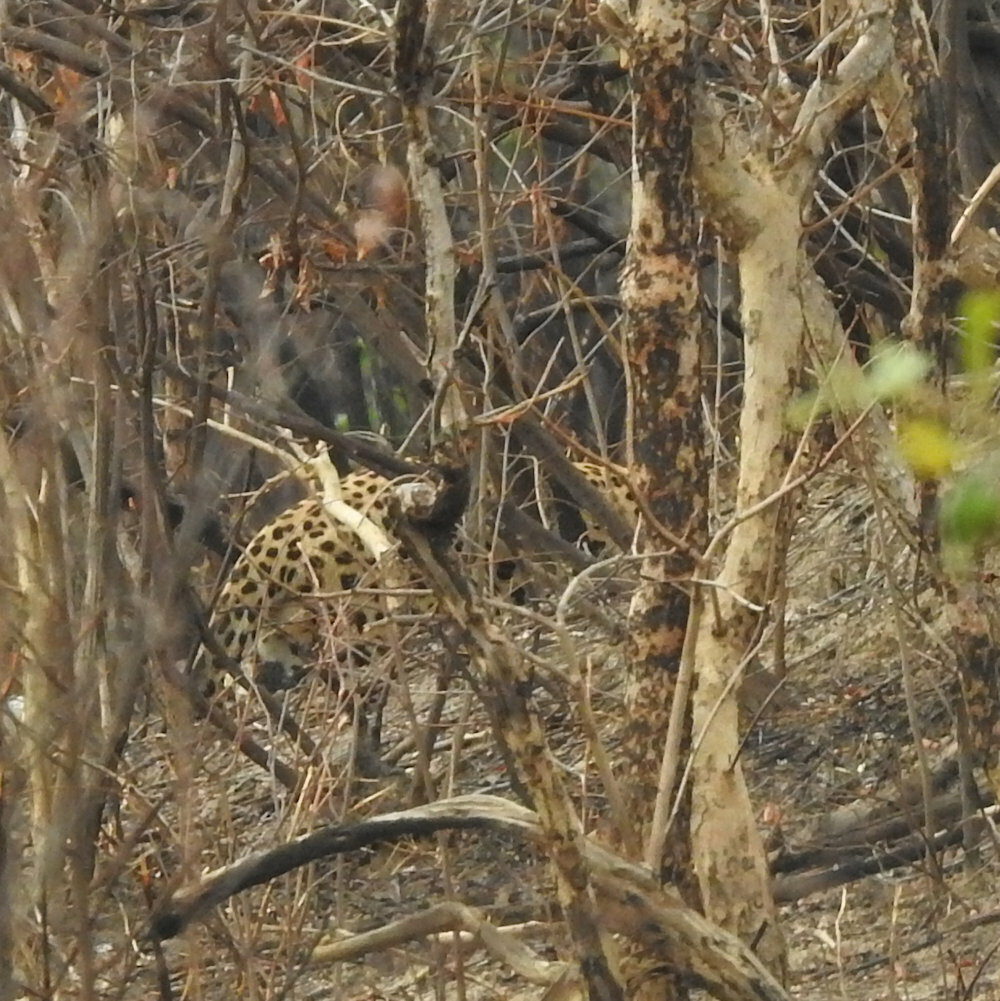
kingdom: Animalia
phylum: Chordata
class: Mammalia
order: Carnivora
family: Felidae
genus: Panthera
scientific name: Panthera pardus
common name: Leopard
